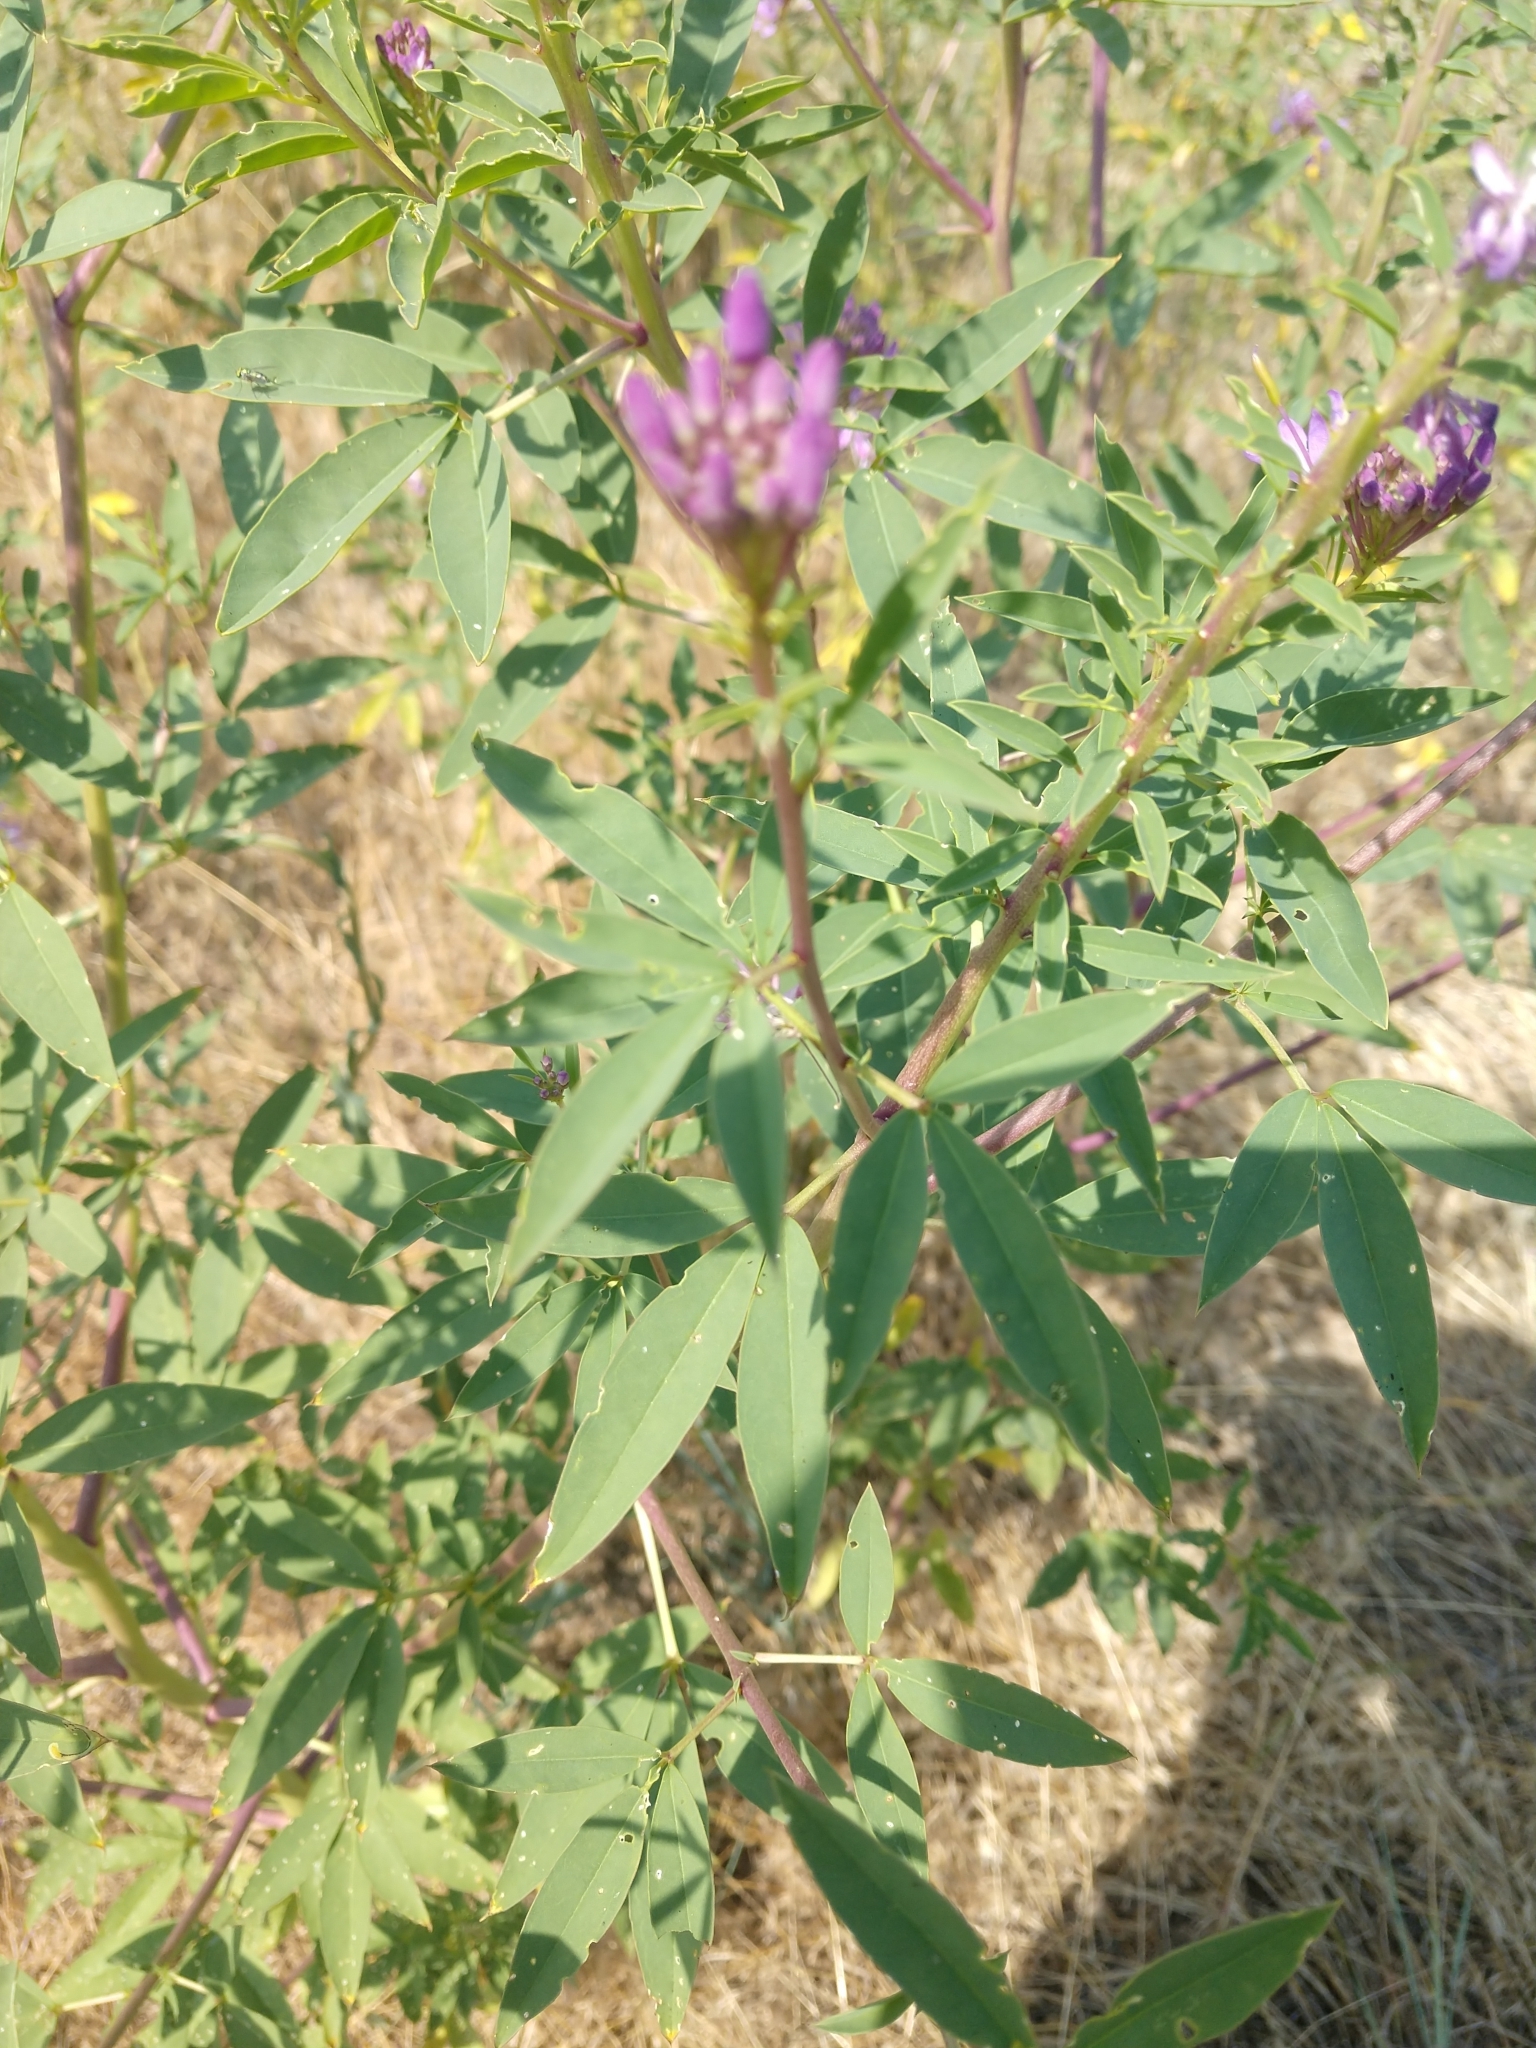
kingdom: Plantae
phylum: Tracheophyta
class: Magnoliopsida
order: Brassicales
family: Cleomaceae
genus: Cleomella
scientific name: Cleomella serrulata
